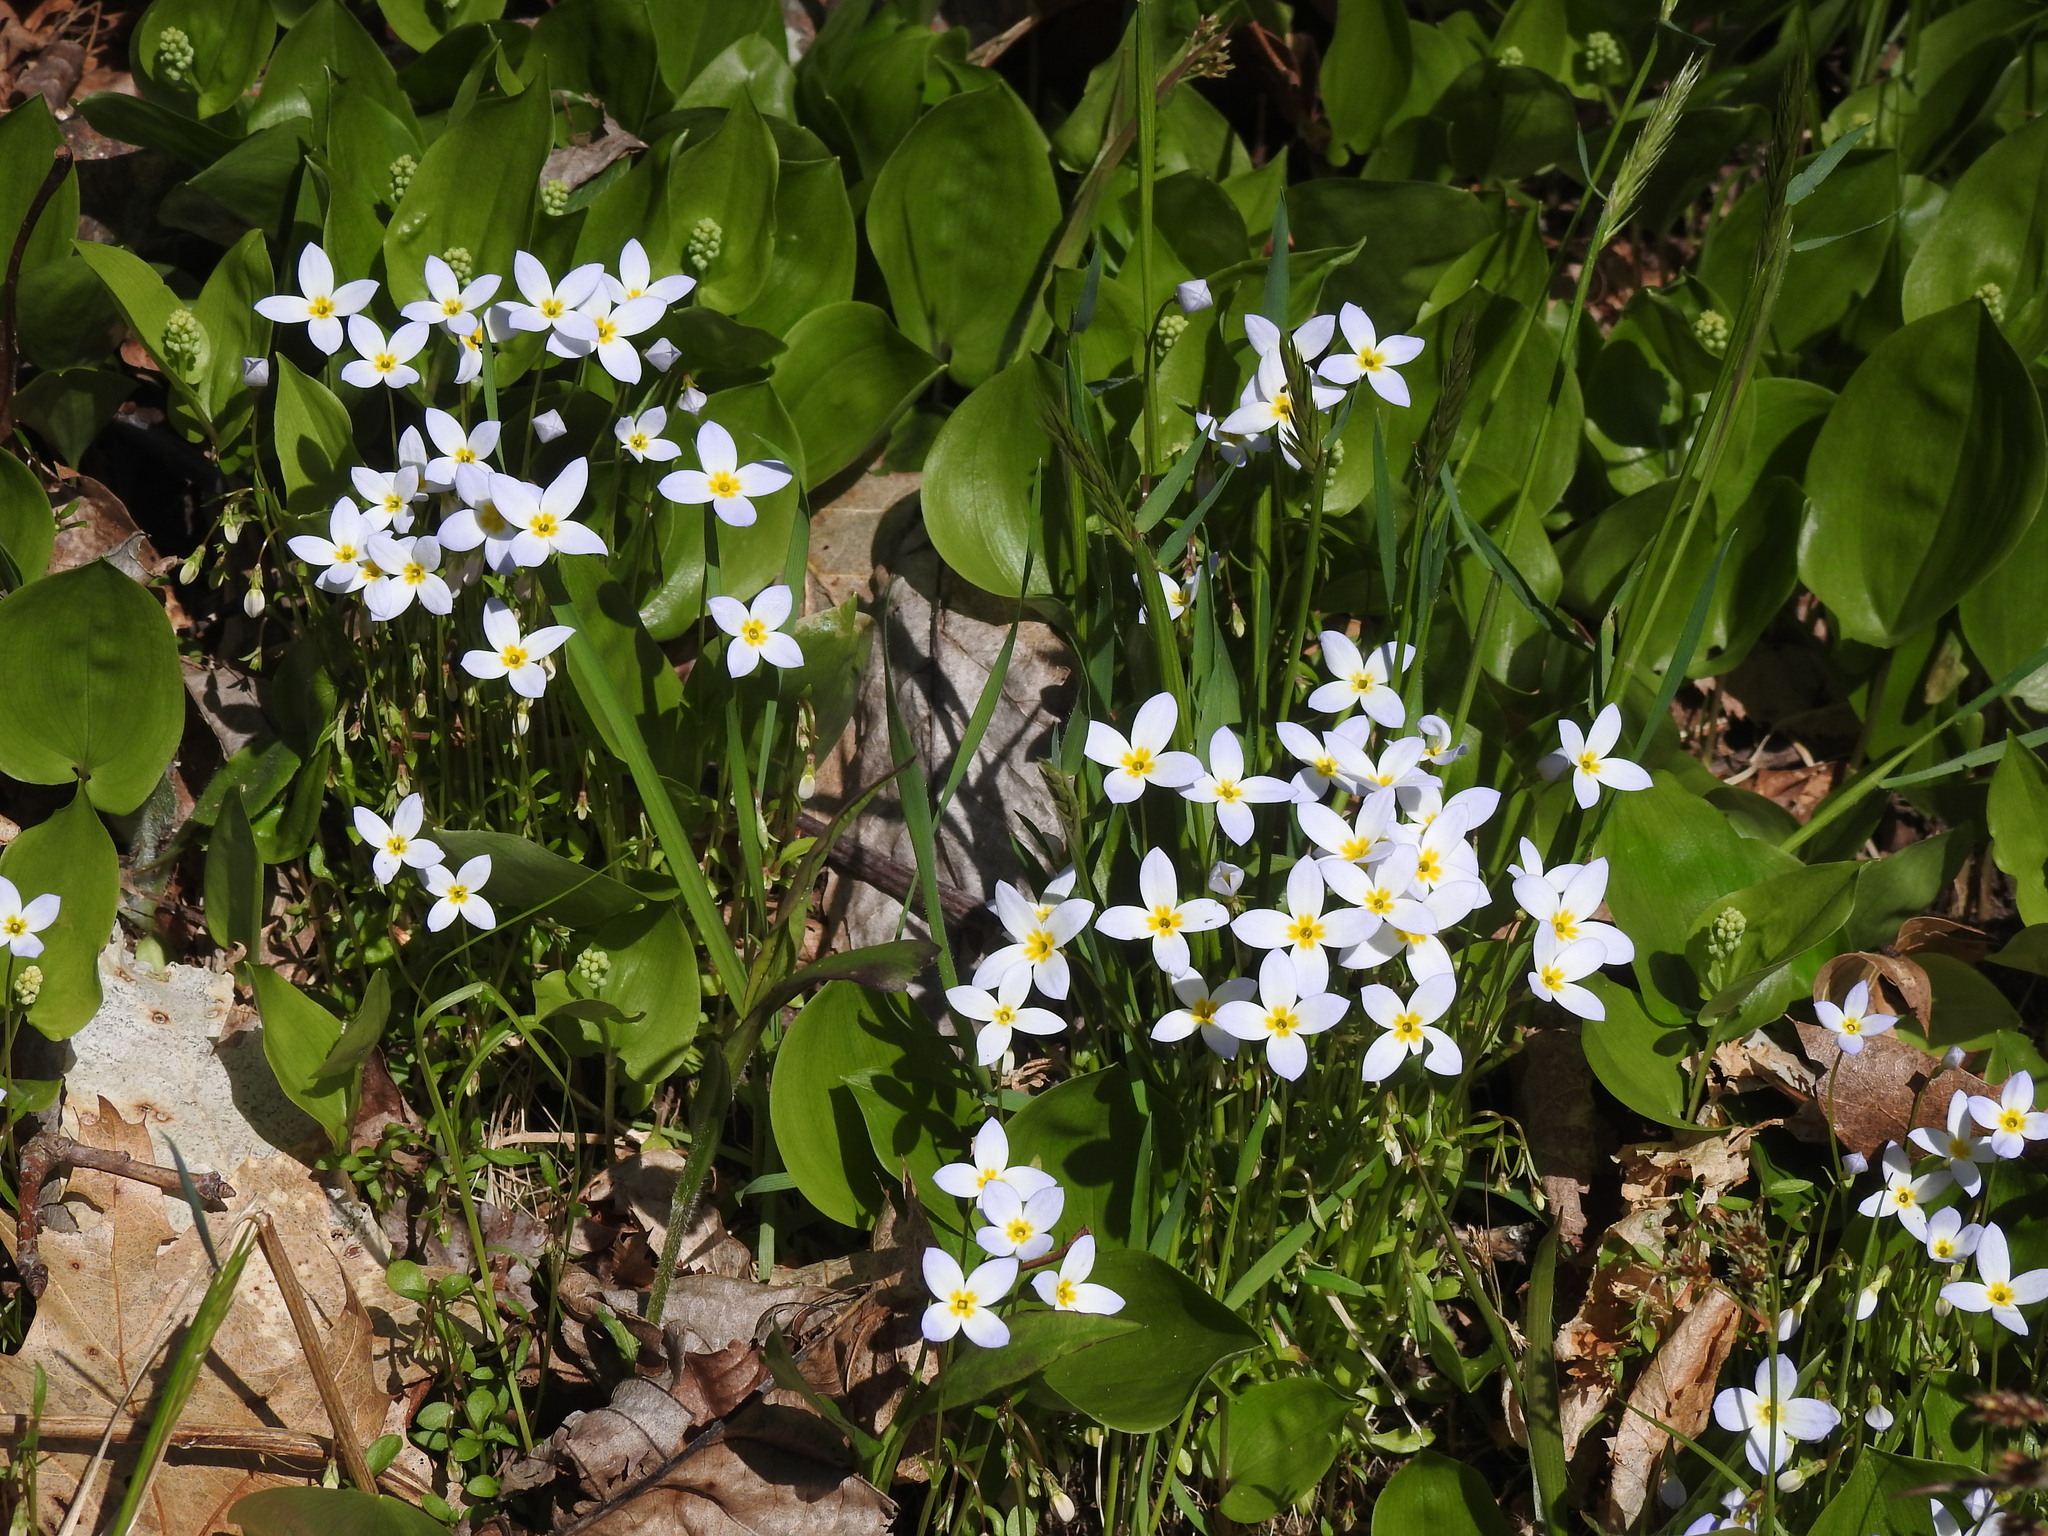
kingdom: Plantae
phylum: Tracheophyta
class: Magnoliopsida
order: Gentianales
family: Rubiaceae
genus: Houstonia
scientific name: Houstonia caerulea
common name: Bluets
